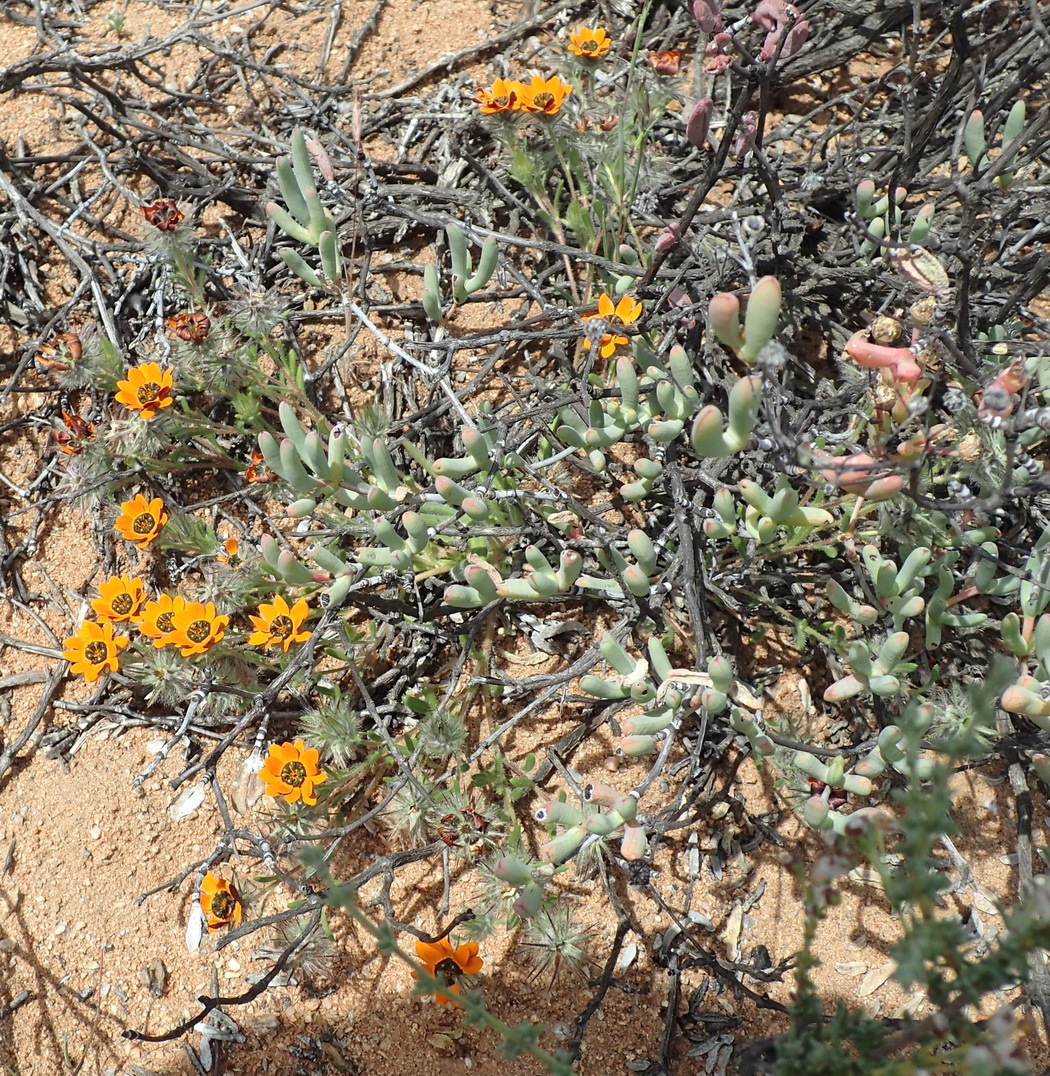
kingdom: Plantae
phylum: Tracheophyta
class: Magnoliopsida
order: Asterales
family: Asteraceae
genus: Gorteria
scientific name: Gorteria diffusa
